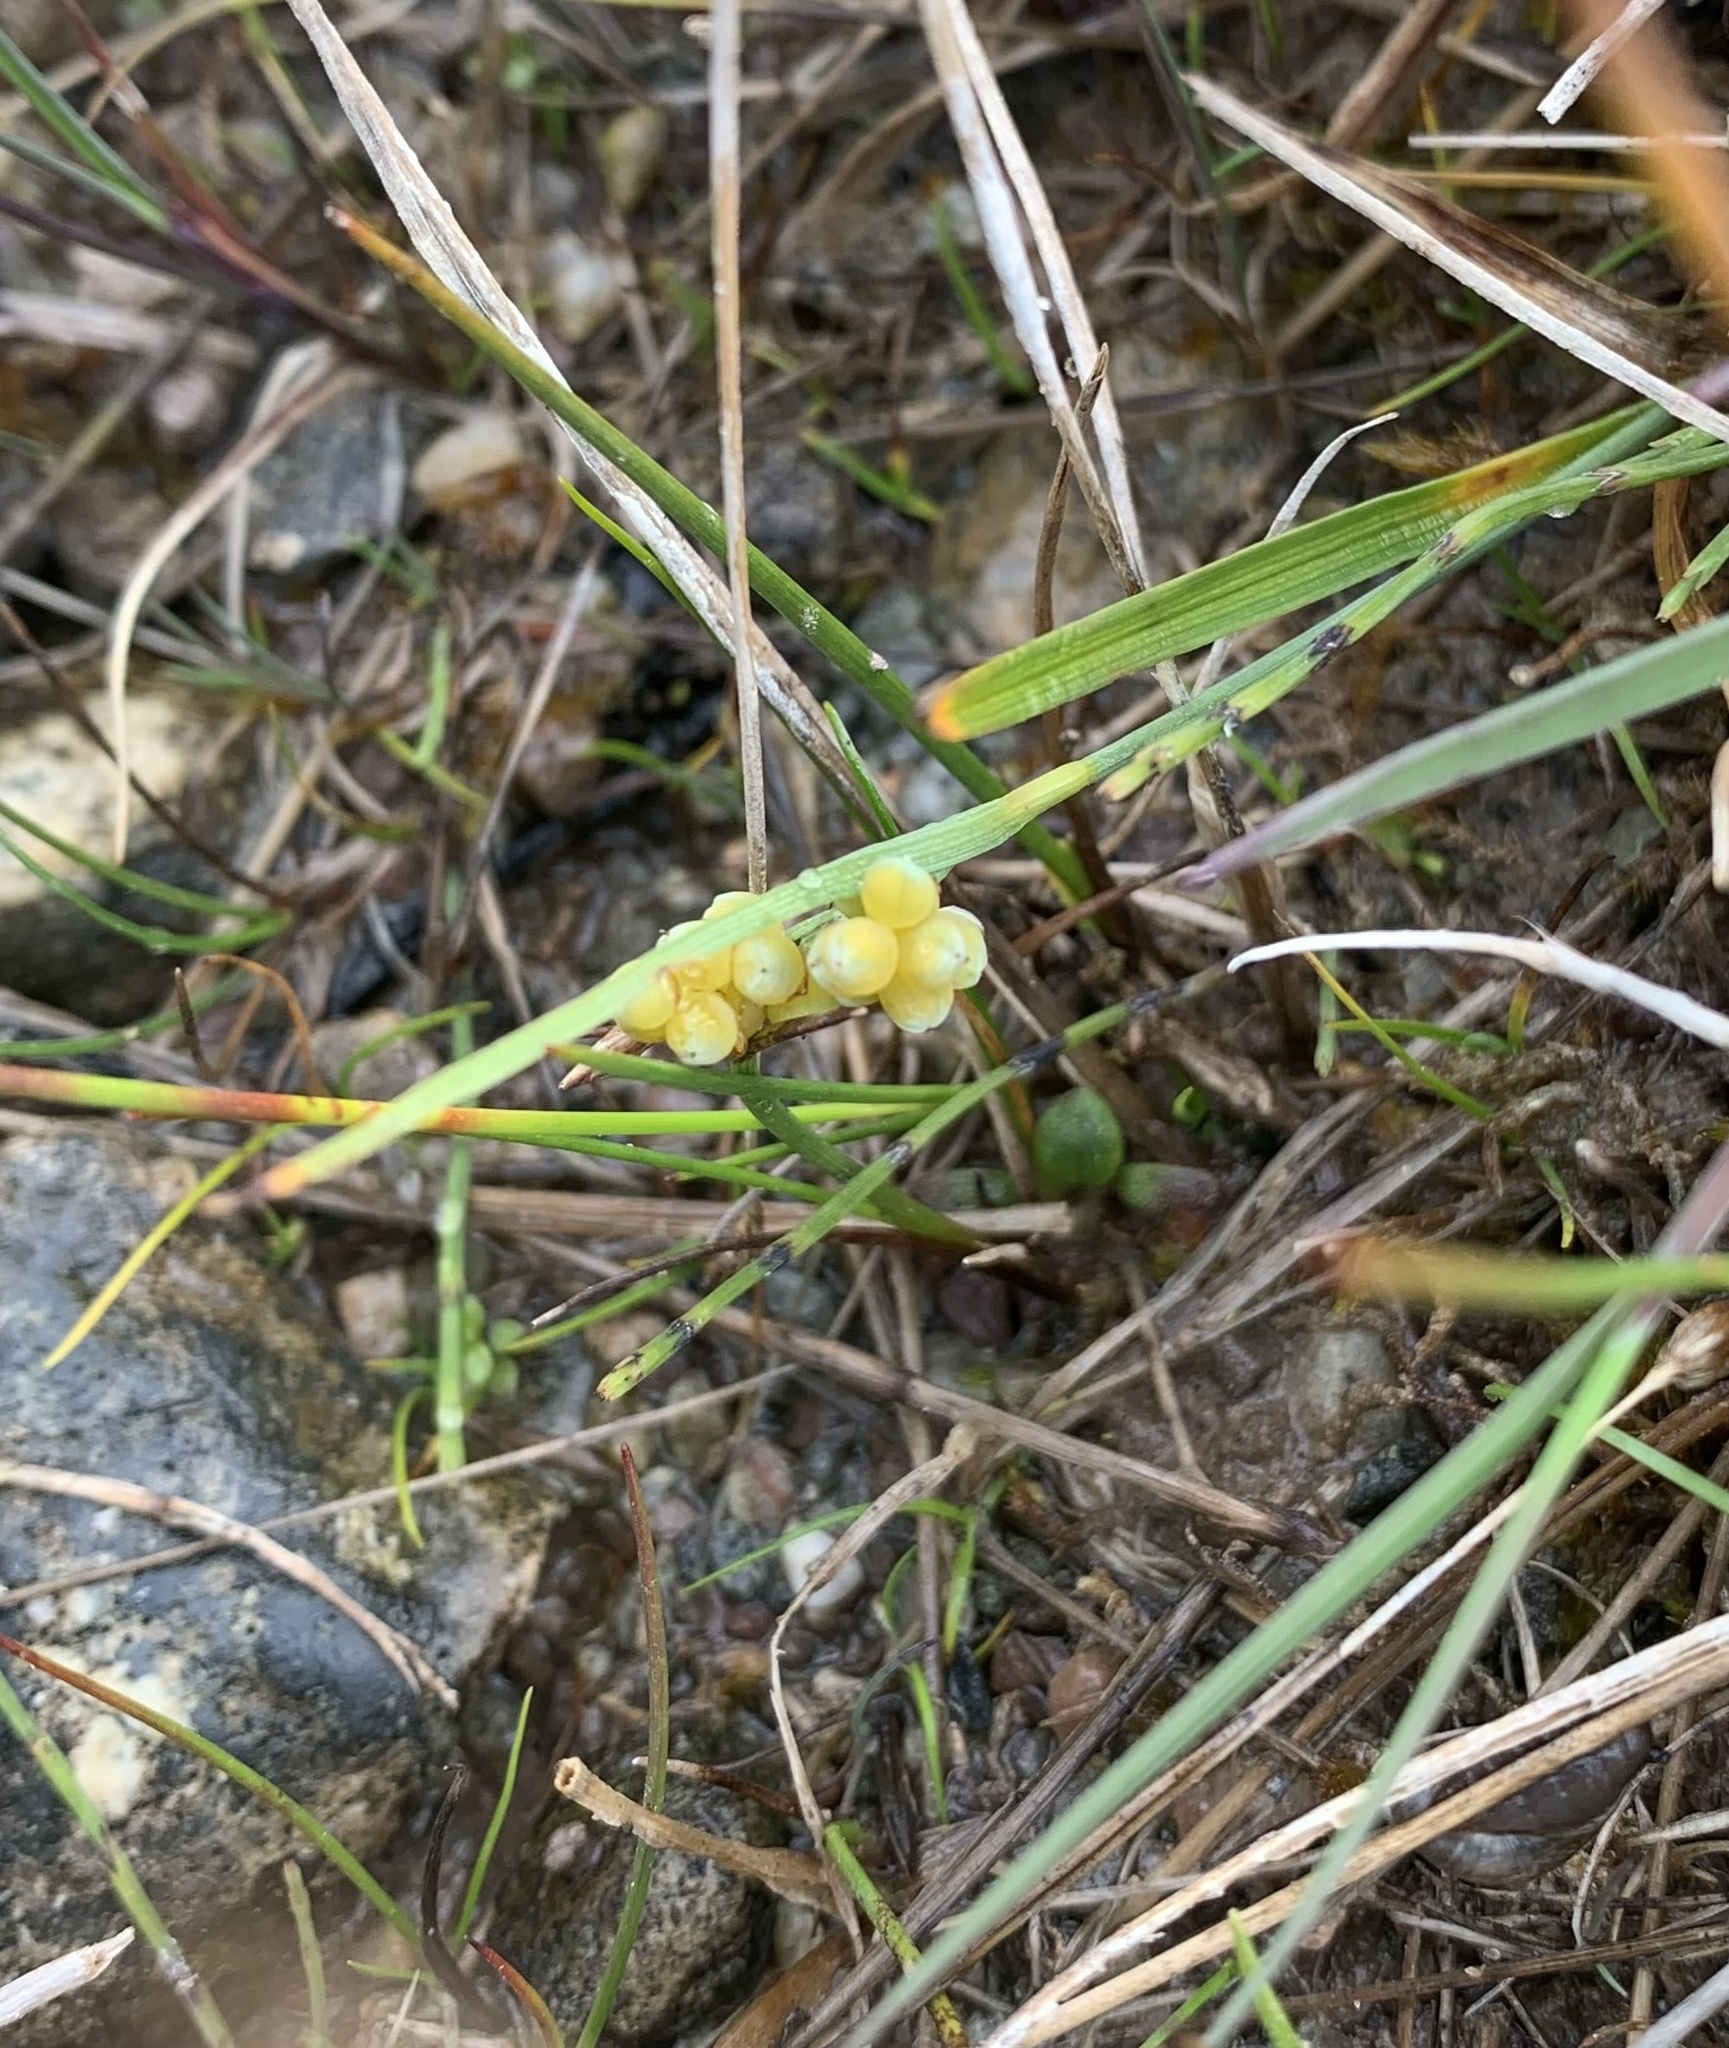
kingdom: Plantae
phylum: Tracheophyta
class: Liliopsida
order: Poales
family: Cyperaceae
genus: Carex
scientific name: Carex aurea
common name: Golden sedge
